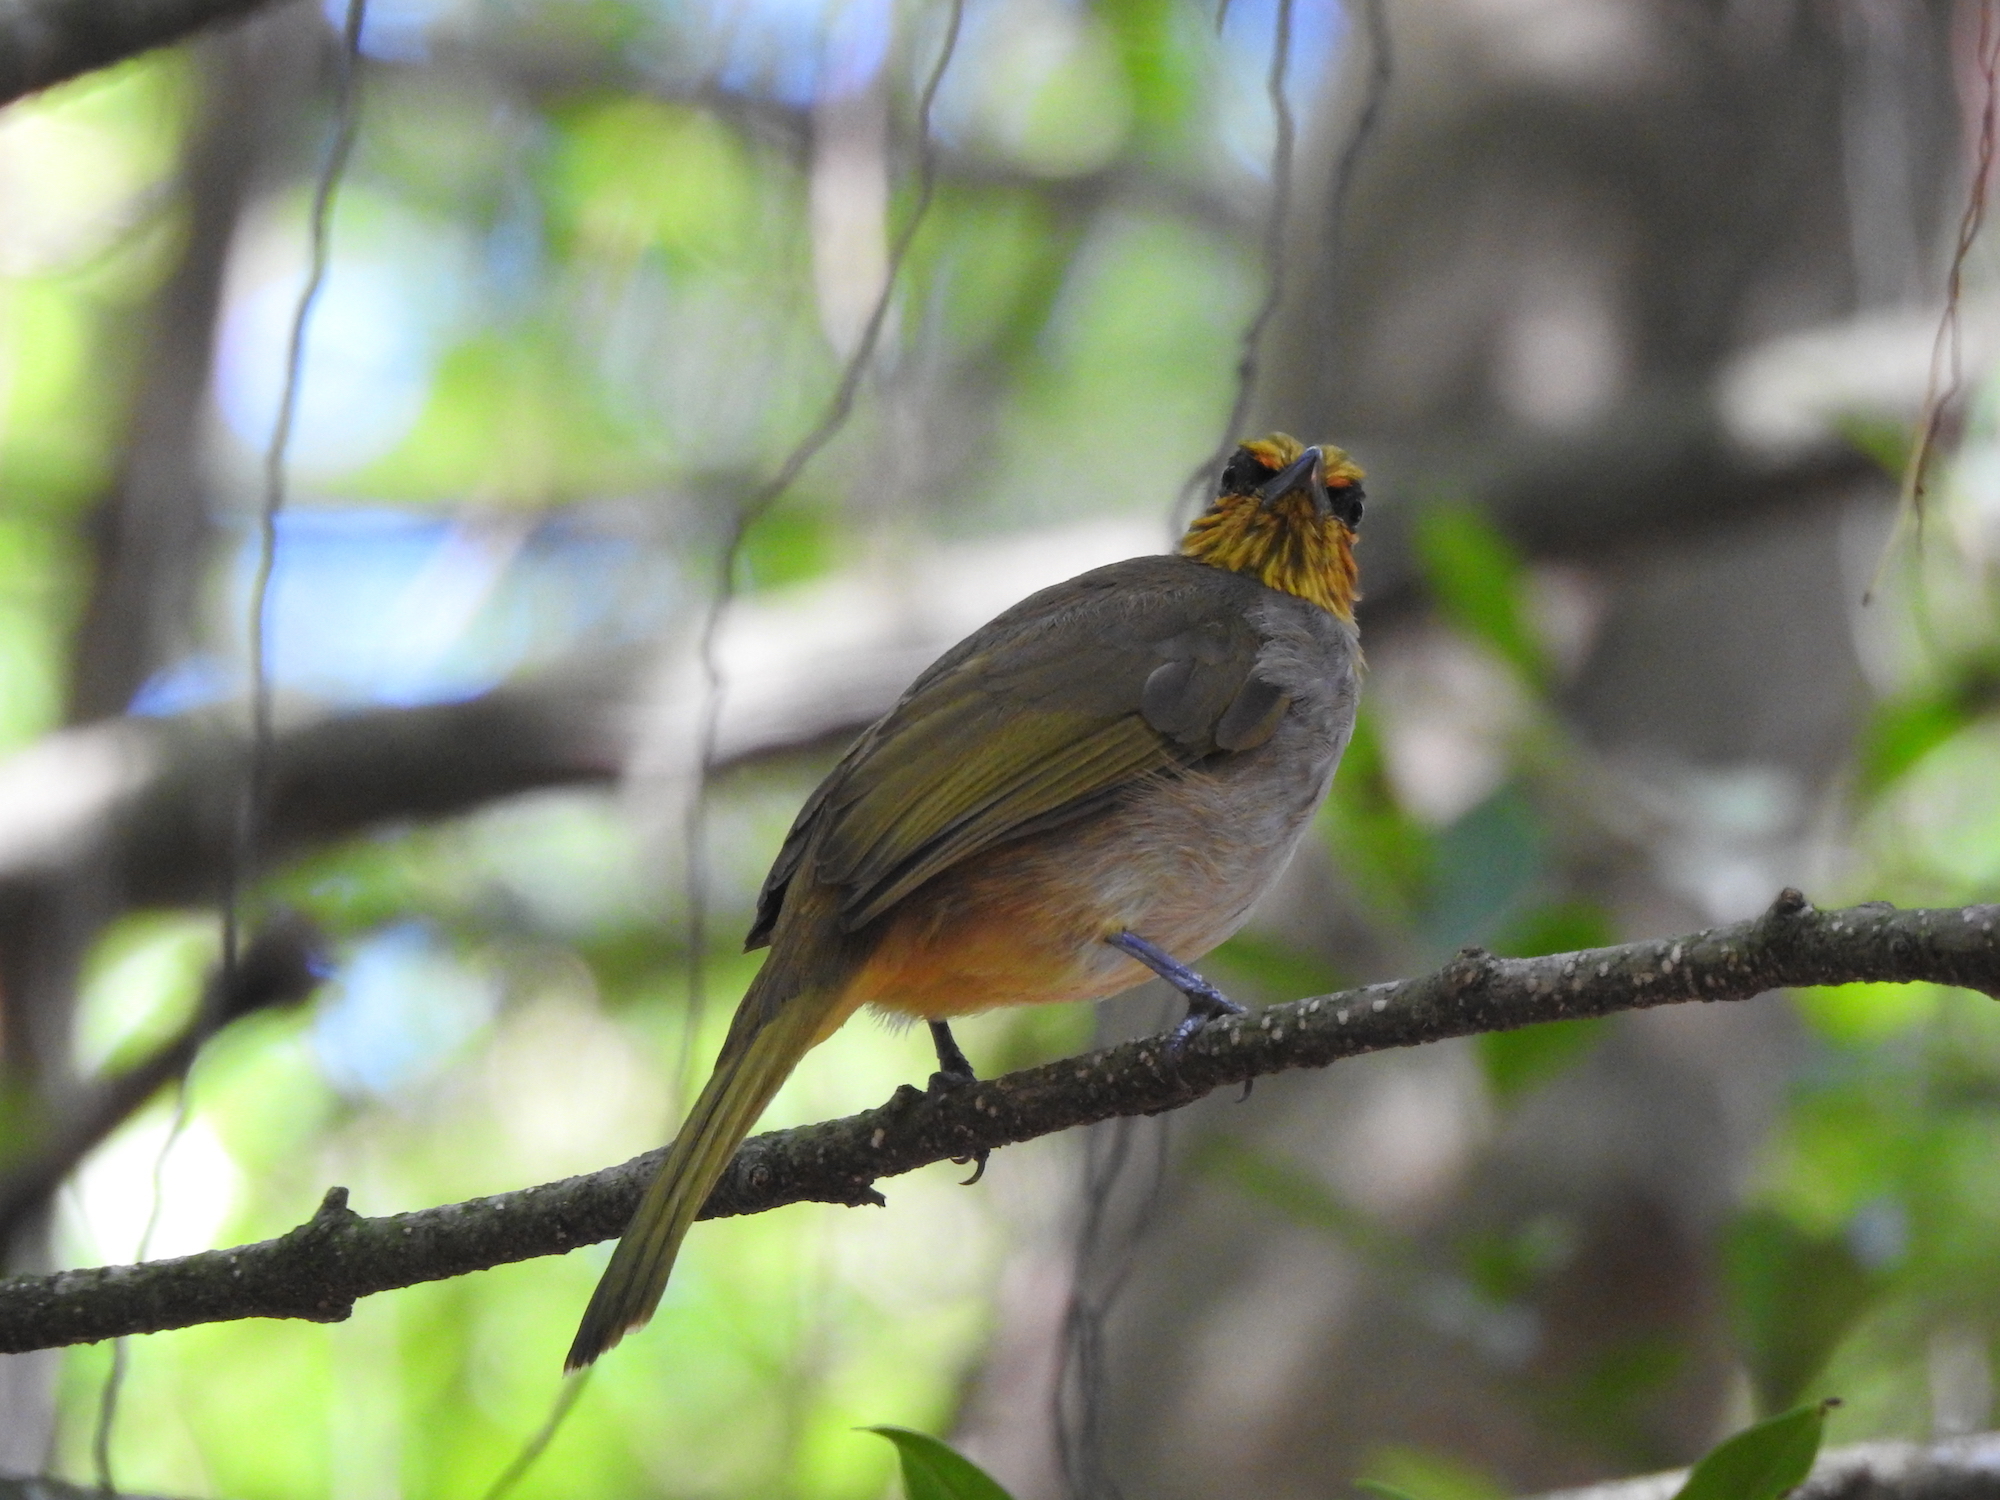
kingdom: Animalia
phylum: Chordata
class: Aves
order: Passeriformes
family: Pycnonotidae
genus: Pycnonotus
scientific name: Pycnonotus finlaysoni
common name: Stripe-throated bulbul
